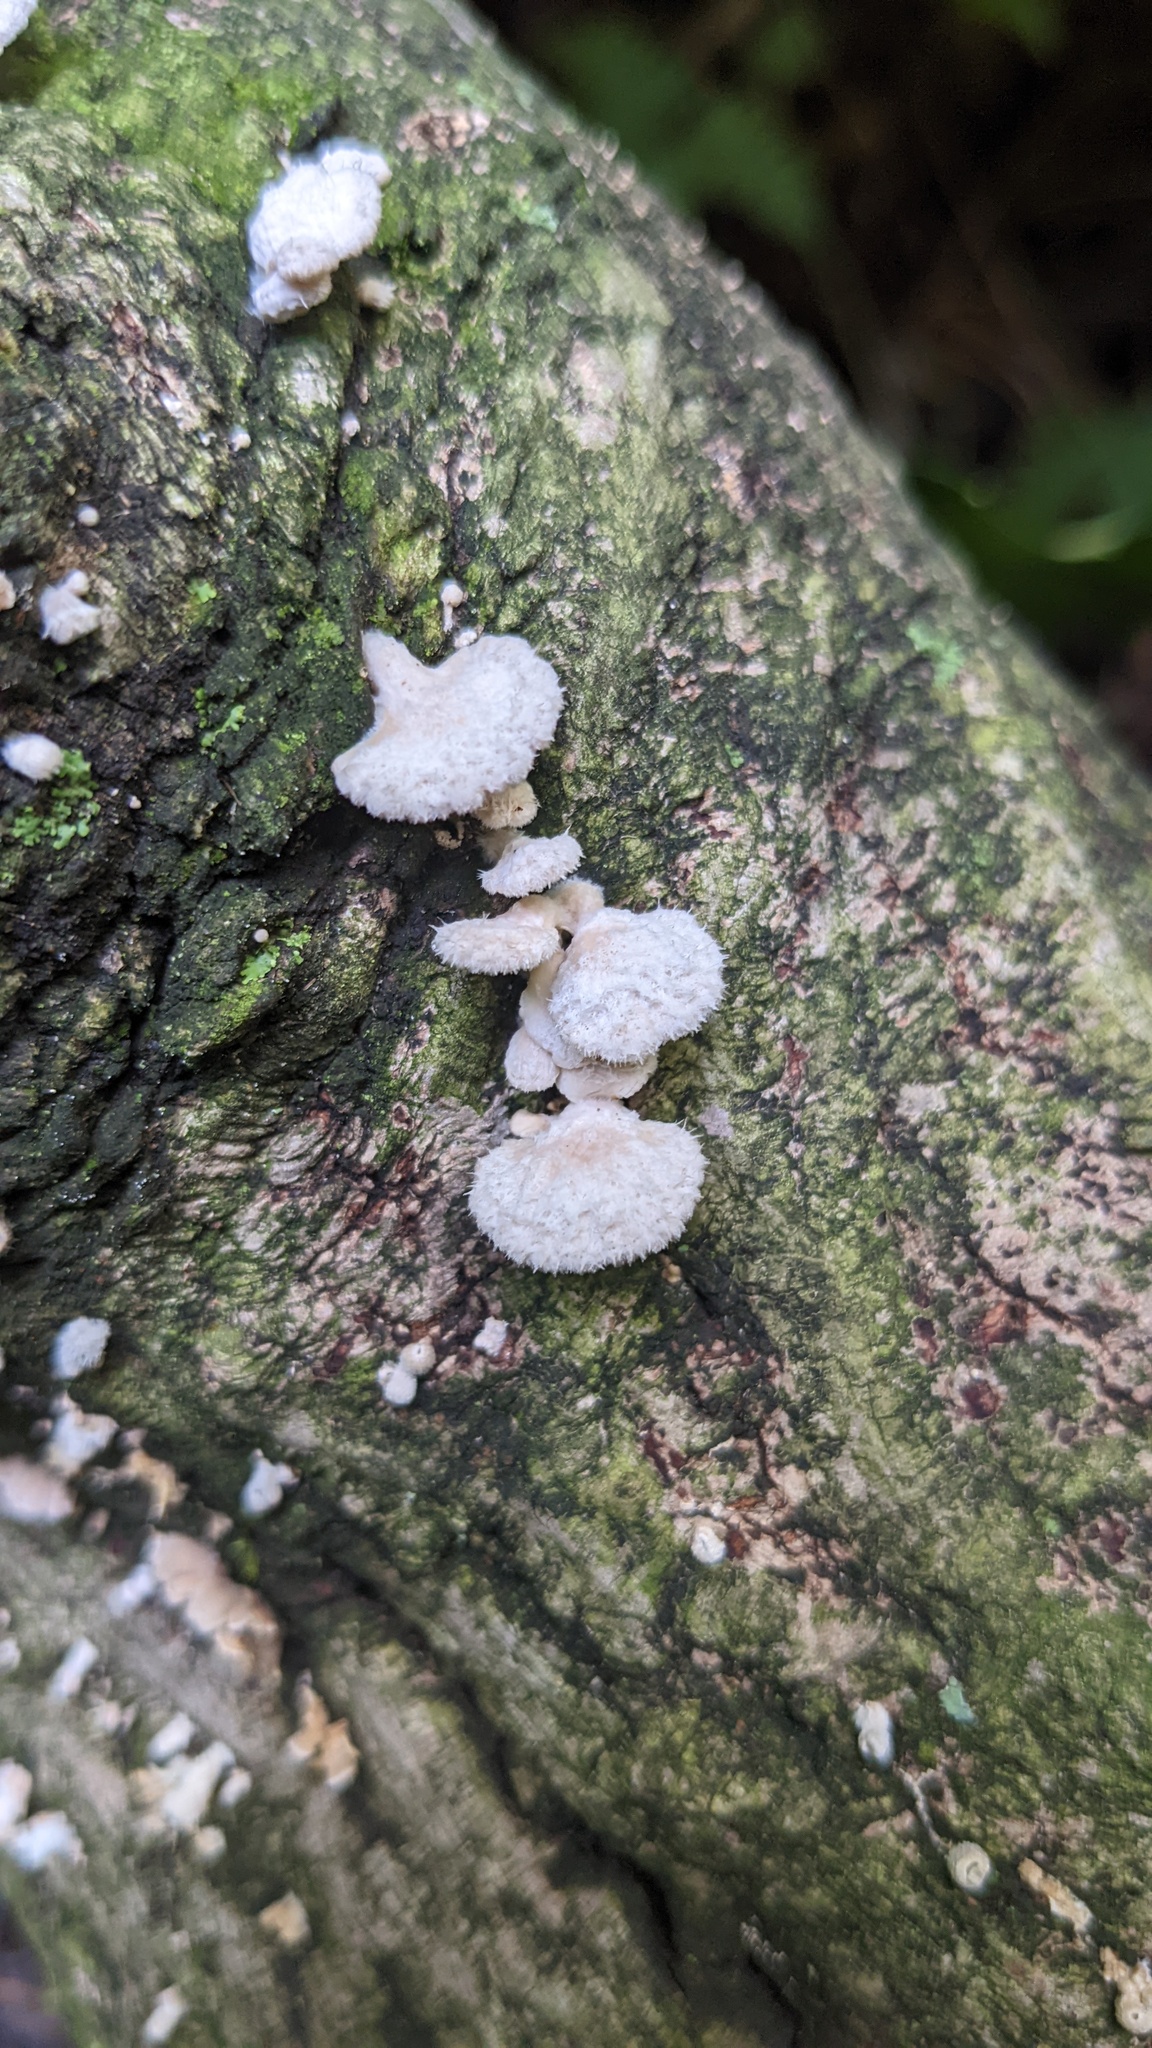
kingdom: Fungi
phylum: Basidiomycota
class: Agaricomycetes
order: Agaricales
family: Schizophyllaceae
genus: Schizophyllum
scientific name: Schizophyllum commune
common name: Common porecrust
